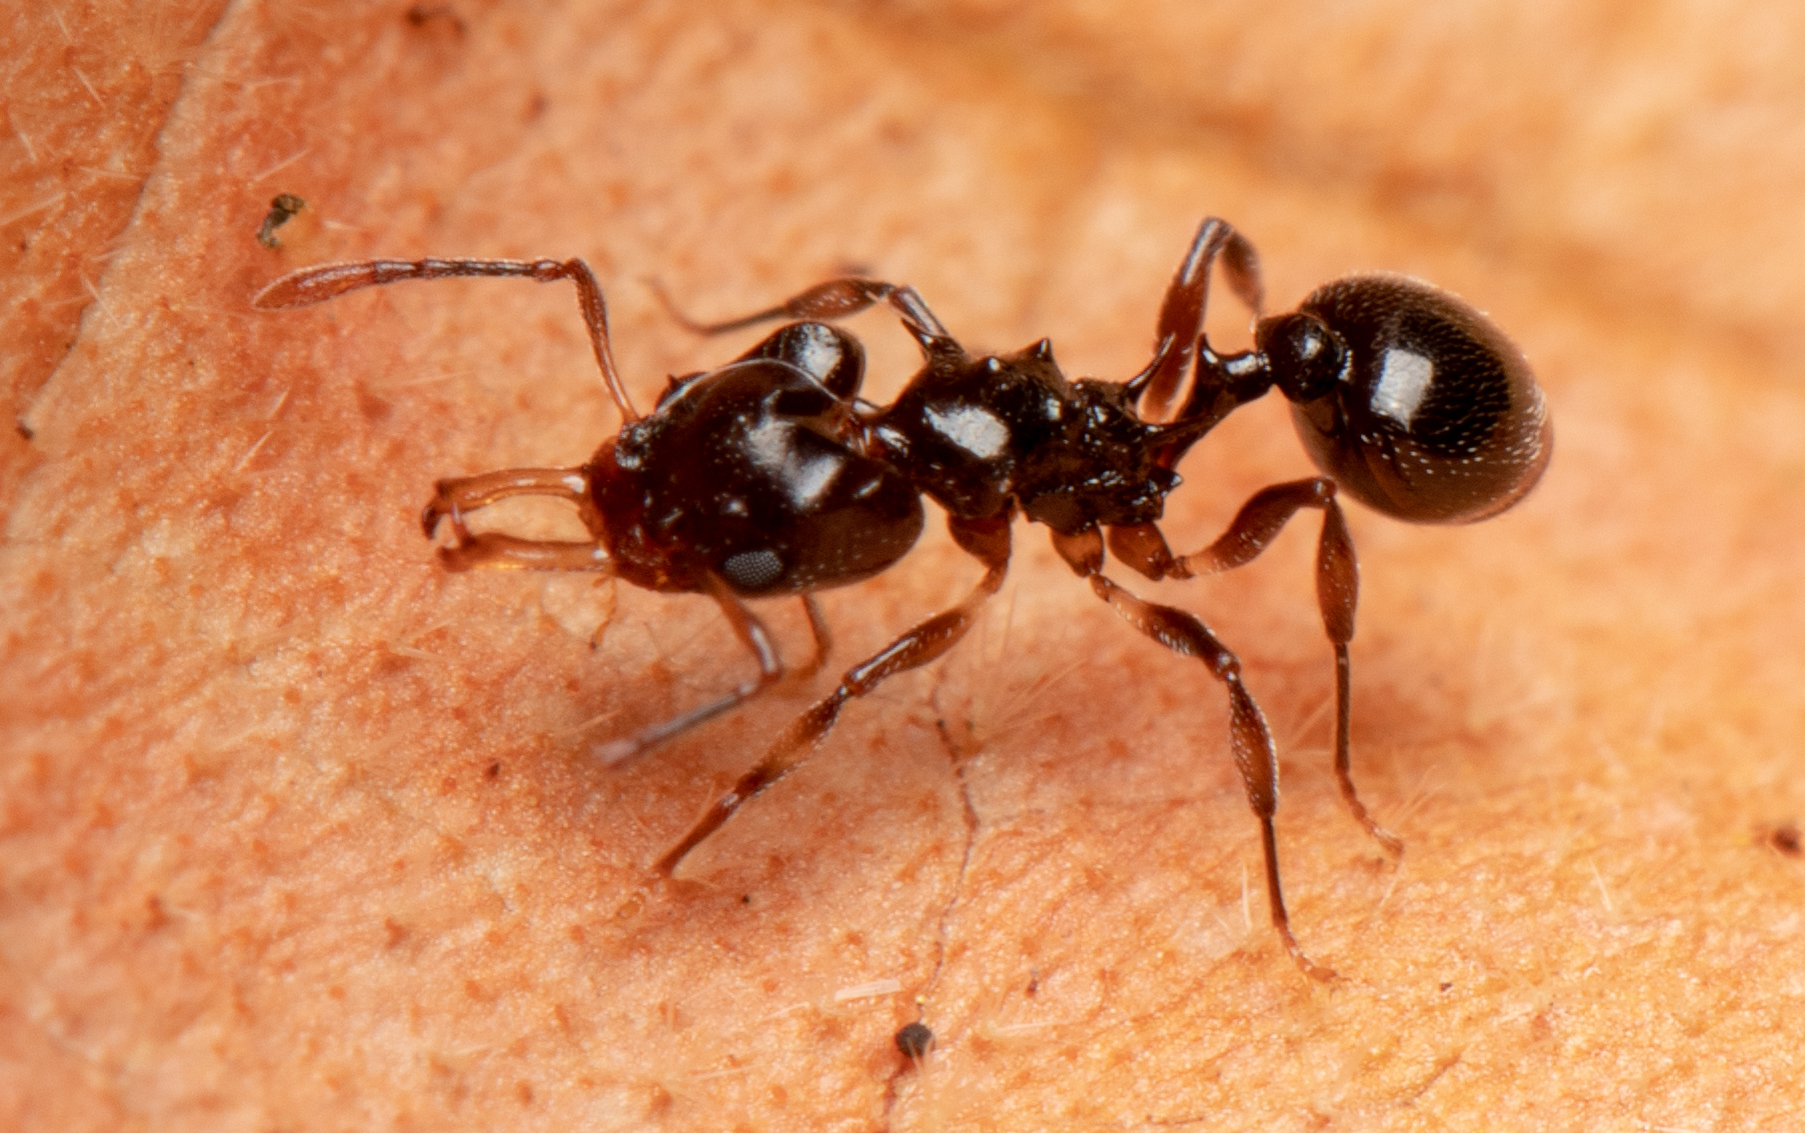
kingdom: Animalia
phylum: Arthropoda
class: Insecta
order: Hymenoptera
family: Formicidae
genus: Orectognathus
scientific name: Orectognathus phyllobates
